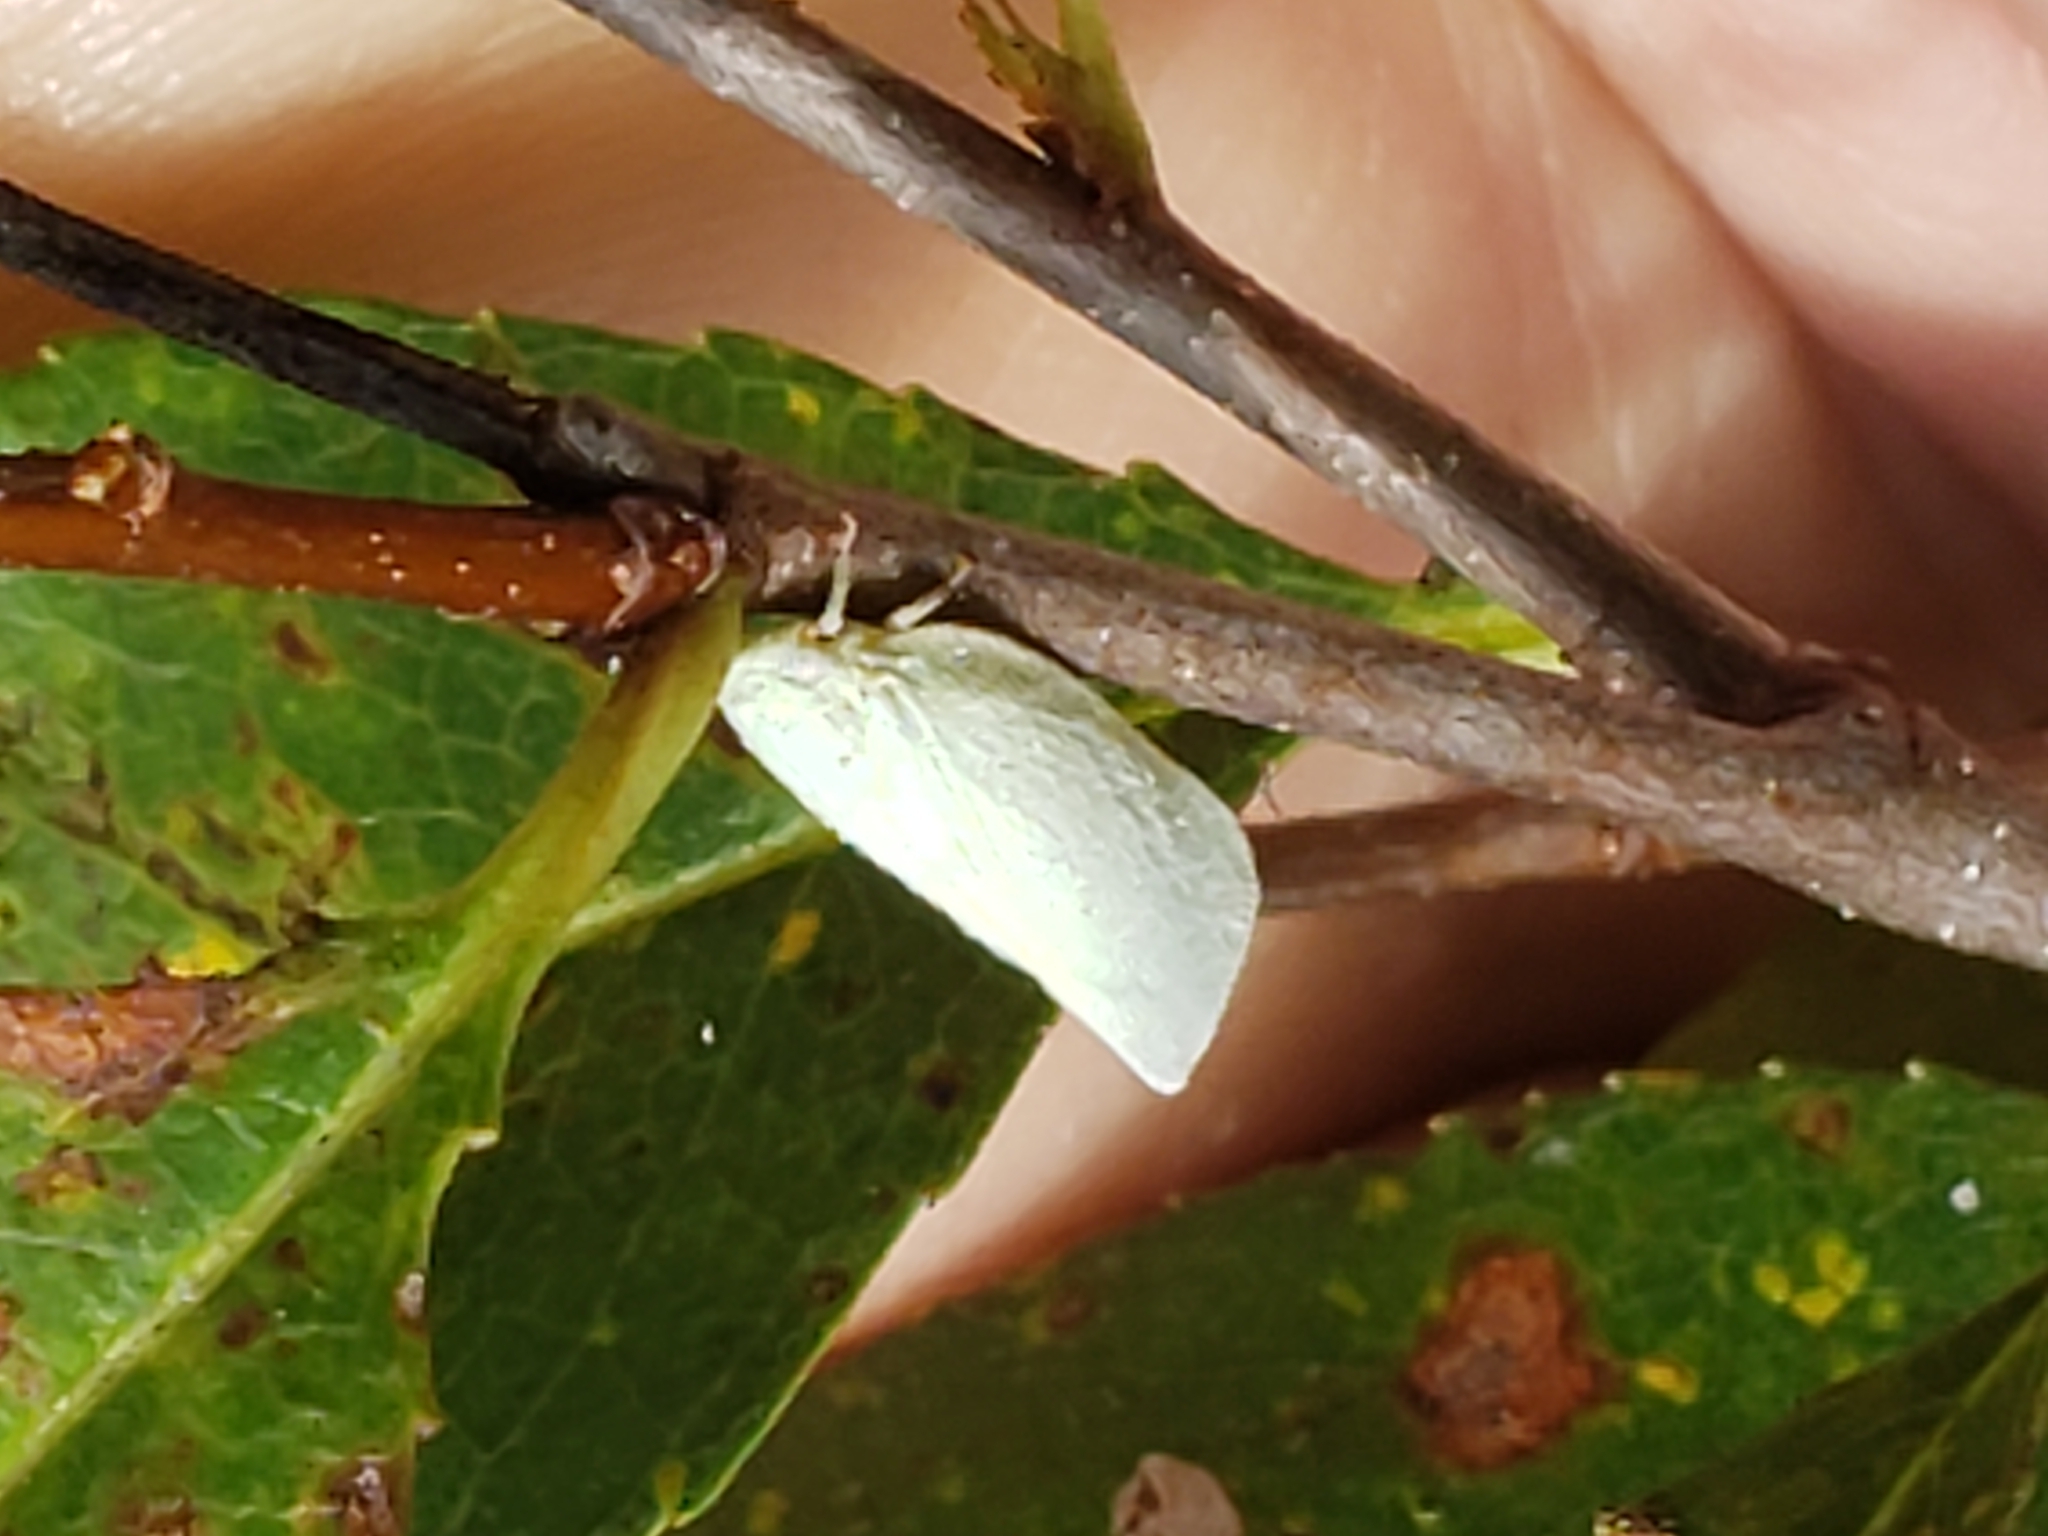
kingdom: Animalia
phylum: Arthropoda
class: Insecta
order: Hemiptera
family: Flatidae
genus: Flatormenis
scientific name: Flatormenis proxima
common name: Northern flatid planthopper
